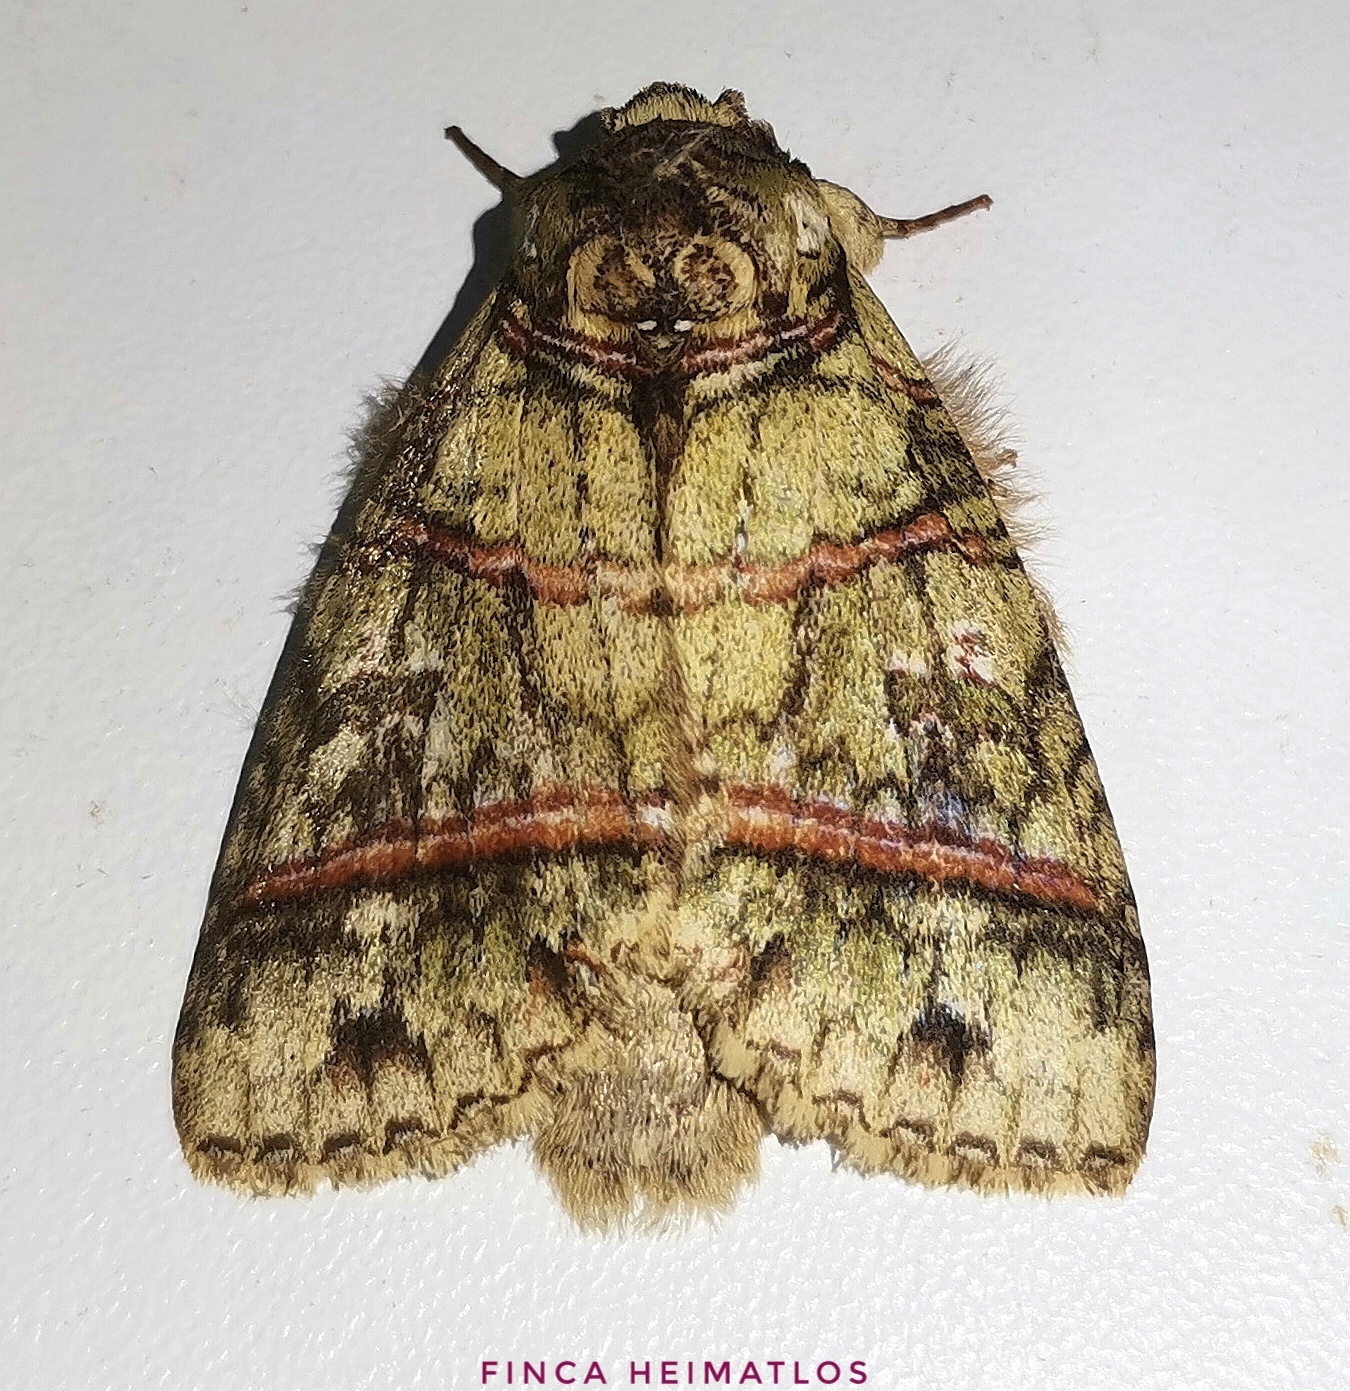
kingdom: Animalia
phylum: Arthropoda
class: Insecta
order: Lepidoptera
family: Notodontidae
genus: Eragisa
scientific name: Eragisa barnesi
